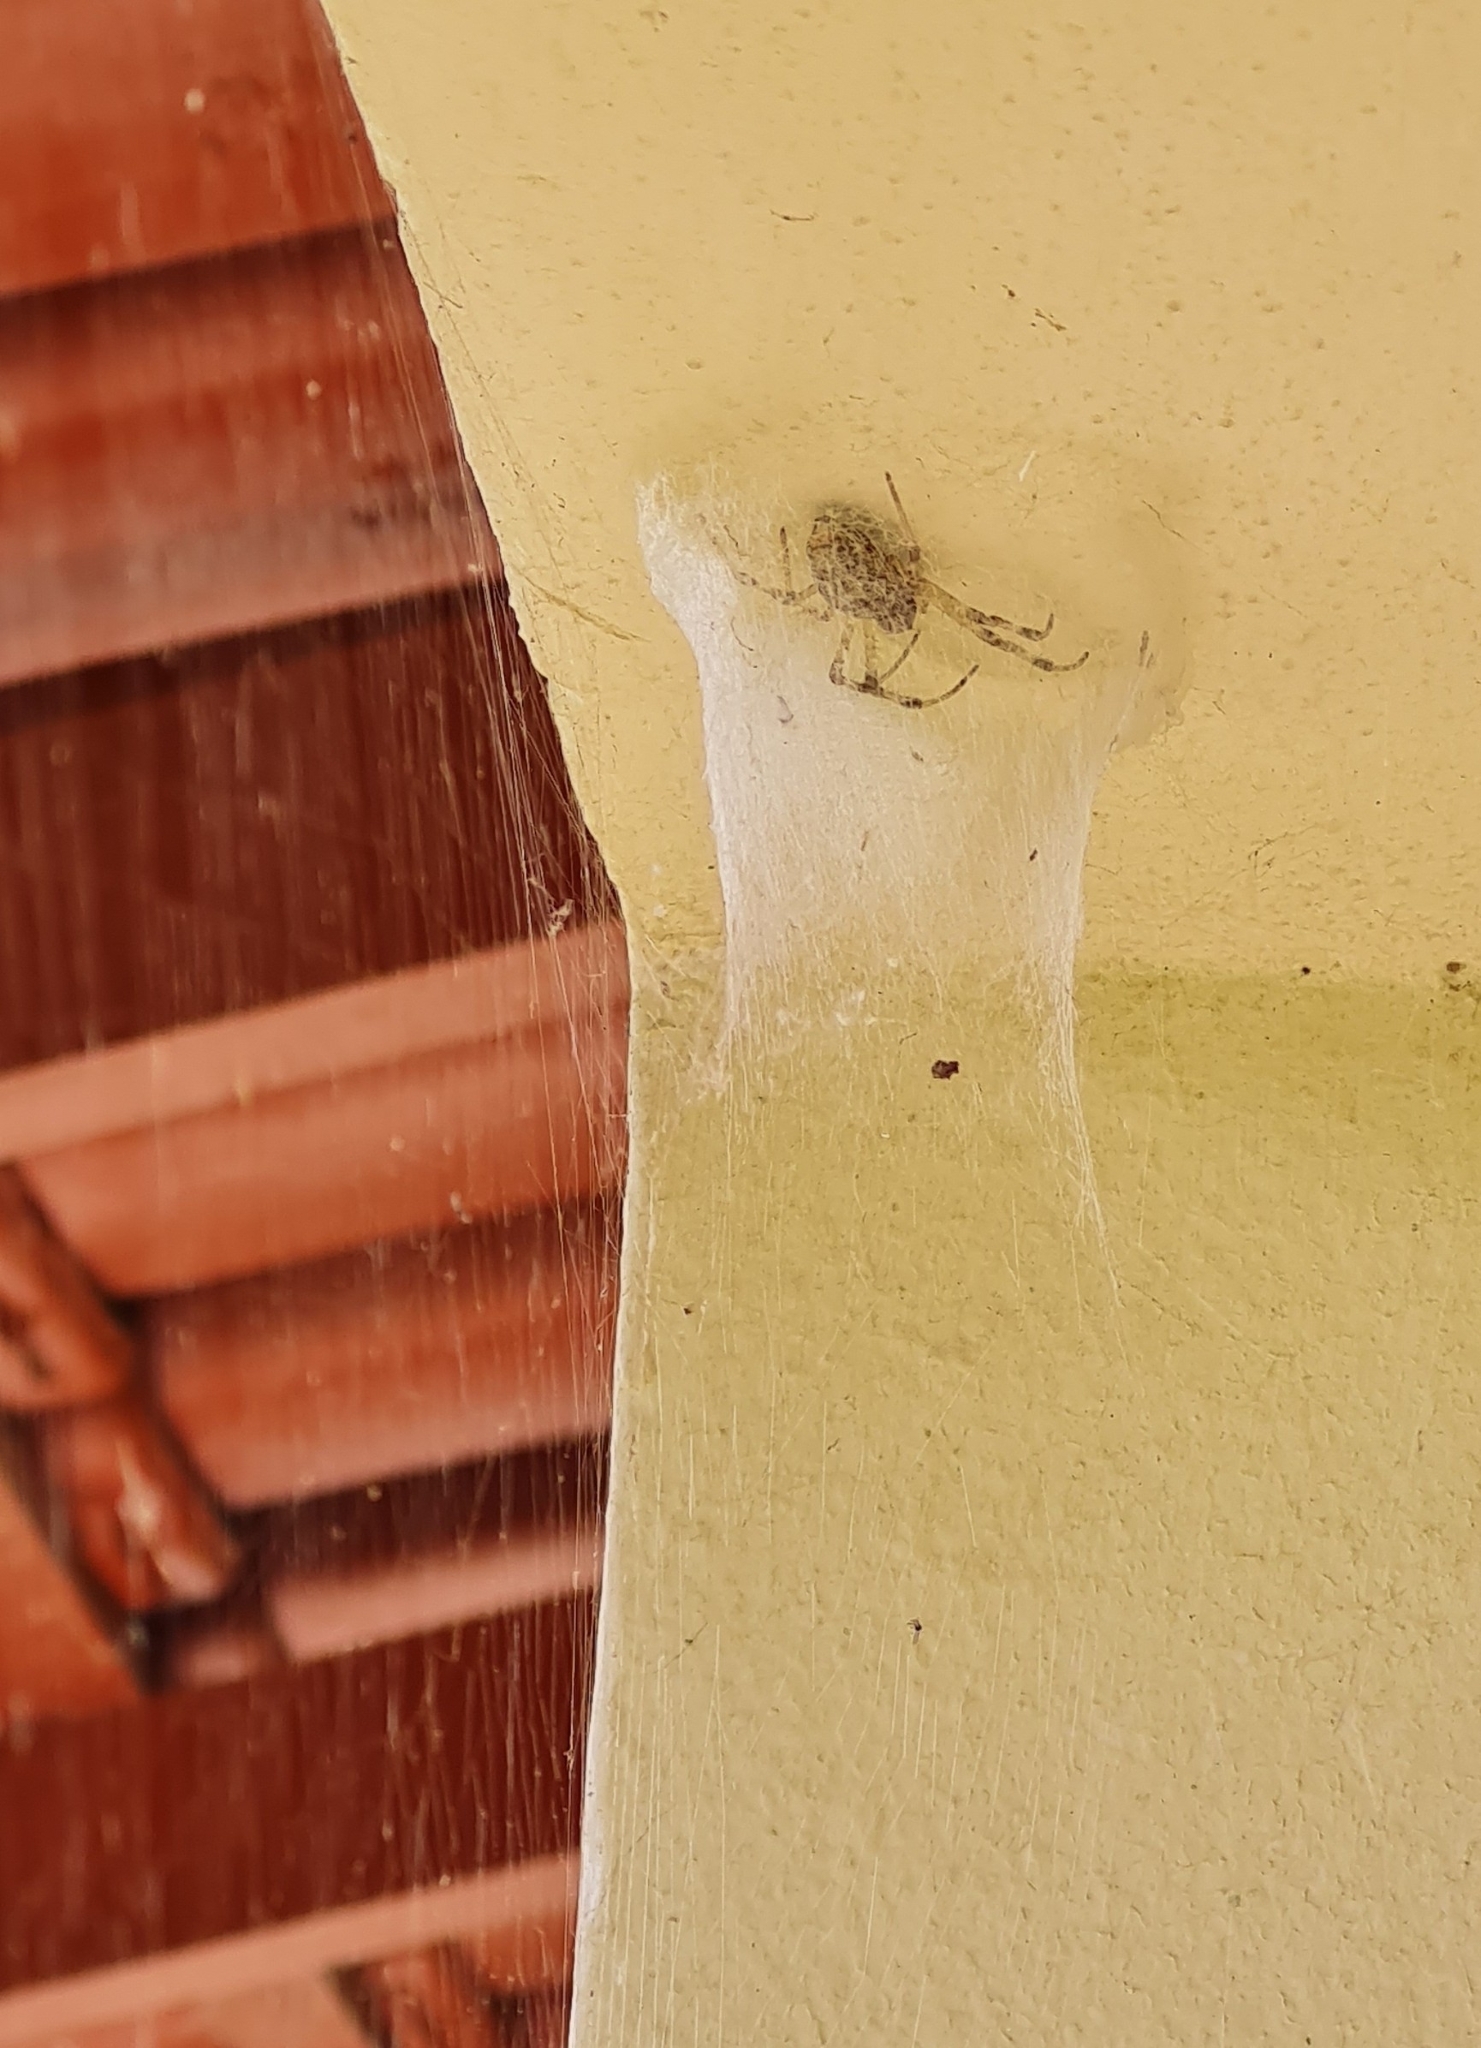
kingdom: Animalia
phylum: Arthropoda
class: Arachnida
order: Araneae
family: Araneidae
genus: Nephilingis
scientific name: Nephilingis cruentata
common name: African hermit spider
